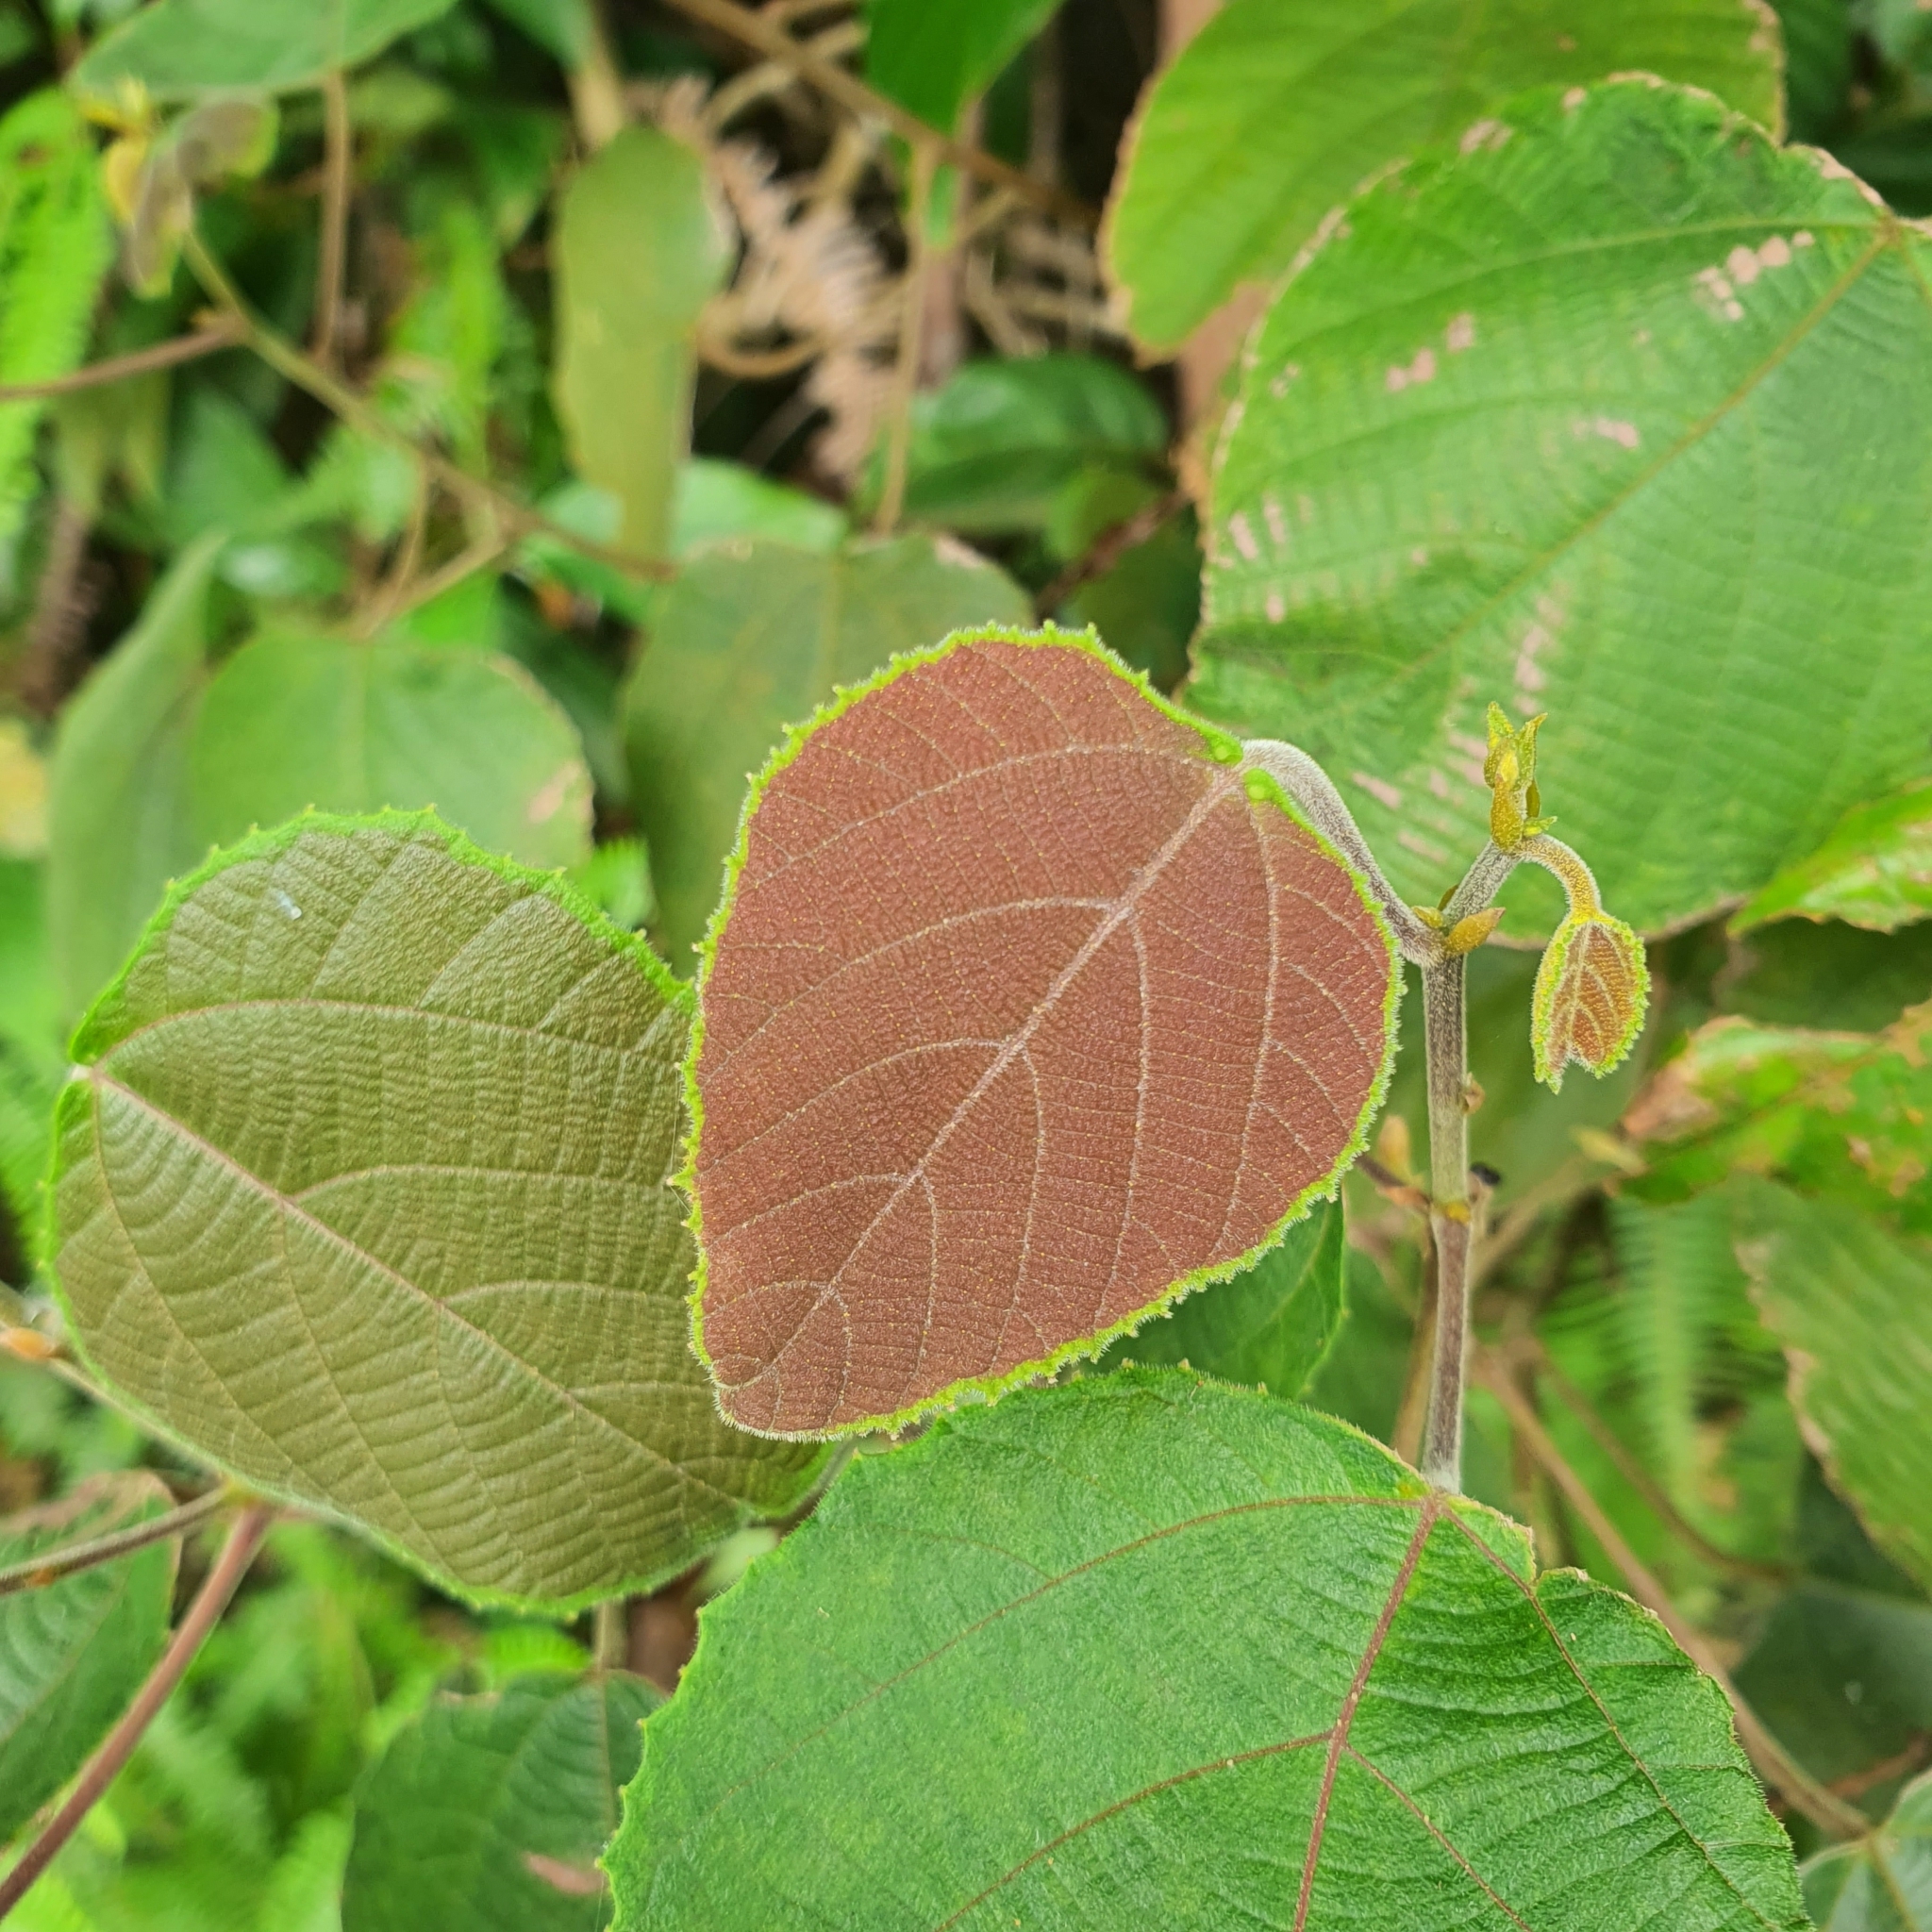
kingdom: Plantae
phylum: Tracheophyta
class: Magnoliopsida
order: Malpighiales
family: Euphorbiaceae
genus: Macaranga
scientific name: Macaranga trichocarpa
